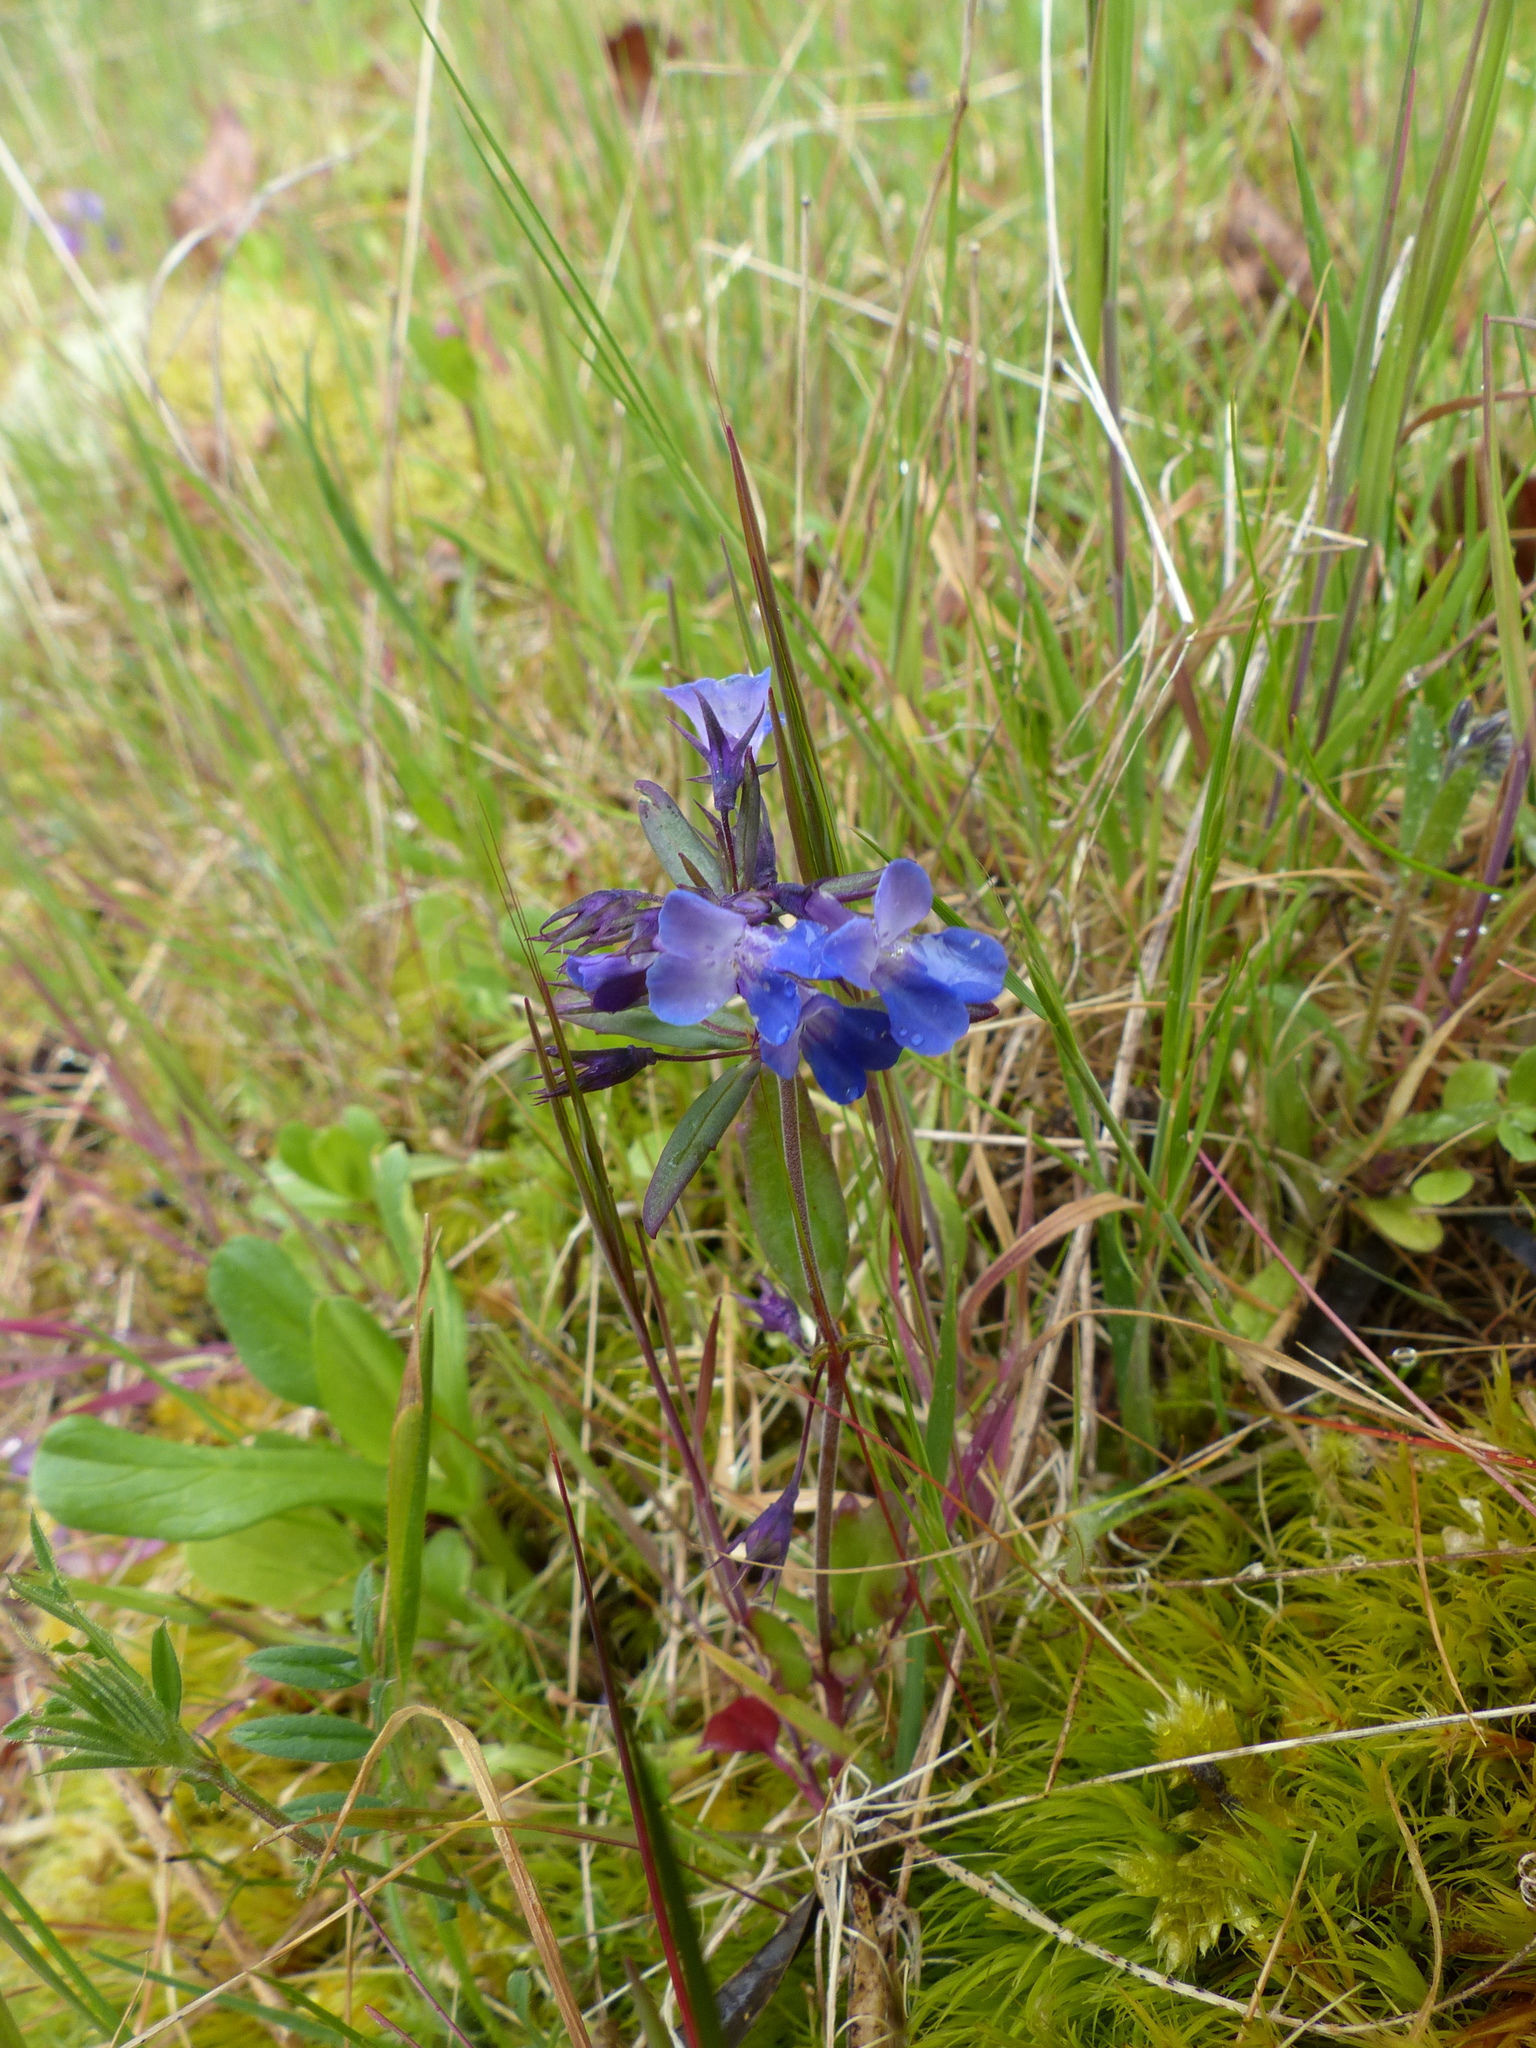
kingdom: Plantae
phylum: Tracheophyta
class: Magnoliopsida
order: Lamiales
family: Plantaginaceae
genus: Collinsia
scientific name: Collinsia grandiflora
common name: Large-flower blue-eyed-mary
